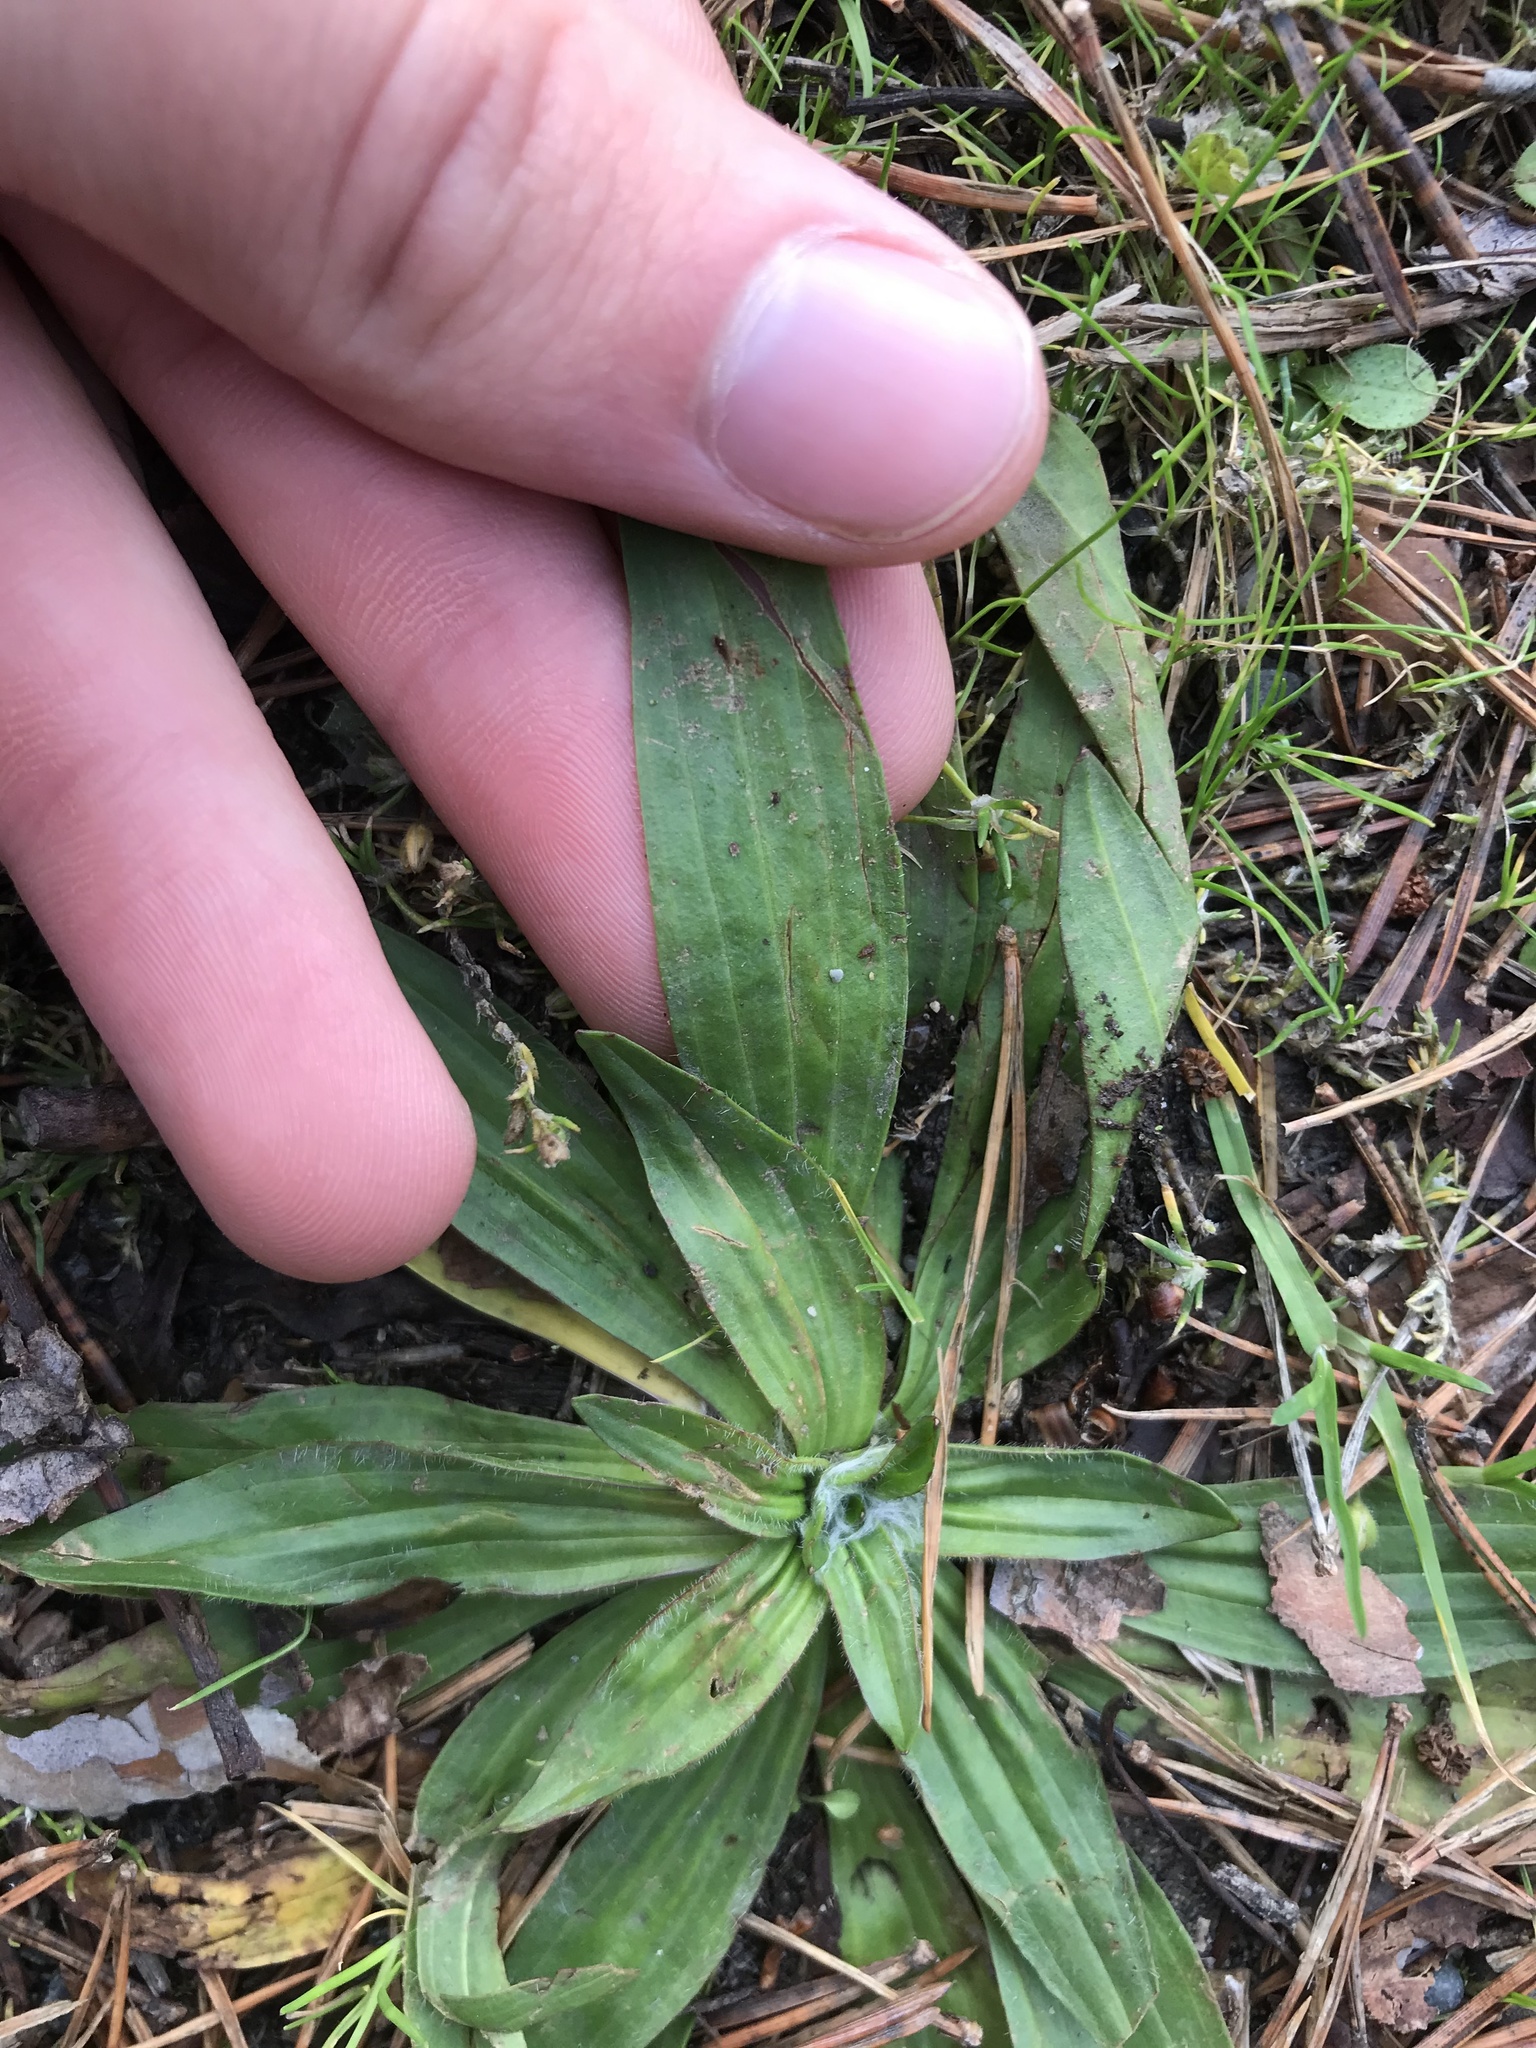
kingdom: Plantae
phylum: Tracheophyta
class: Magnoliopsida
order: Lamiales
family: Plantaginaceae
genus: Plantago
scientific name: Plantago lanceolata
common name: Ribwort plantain
